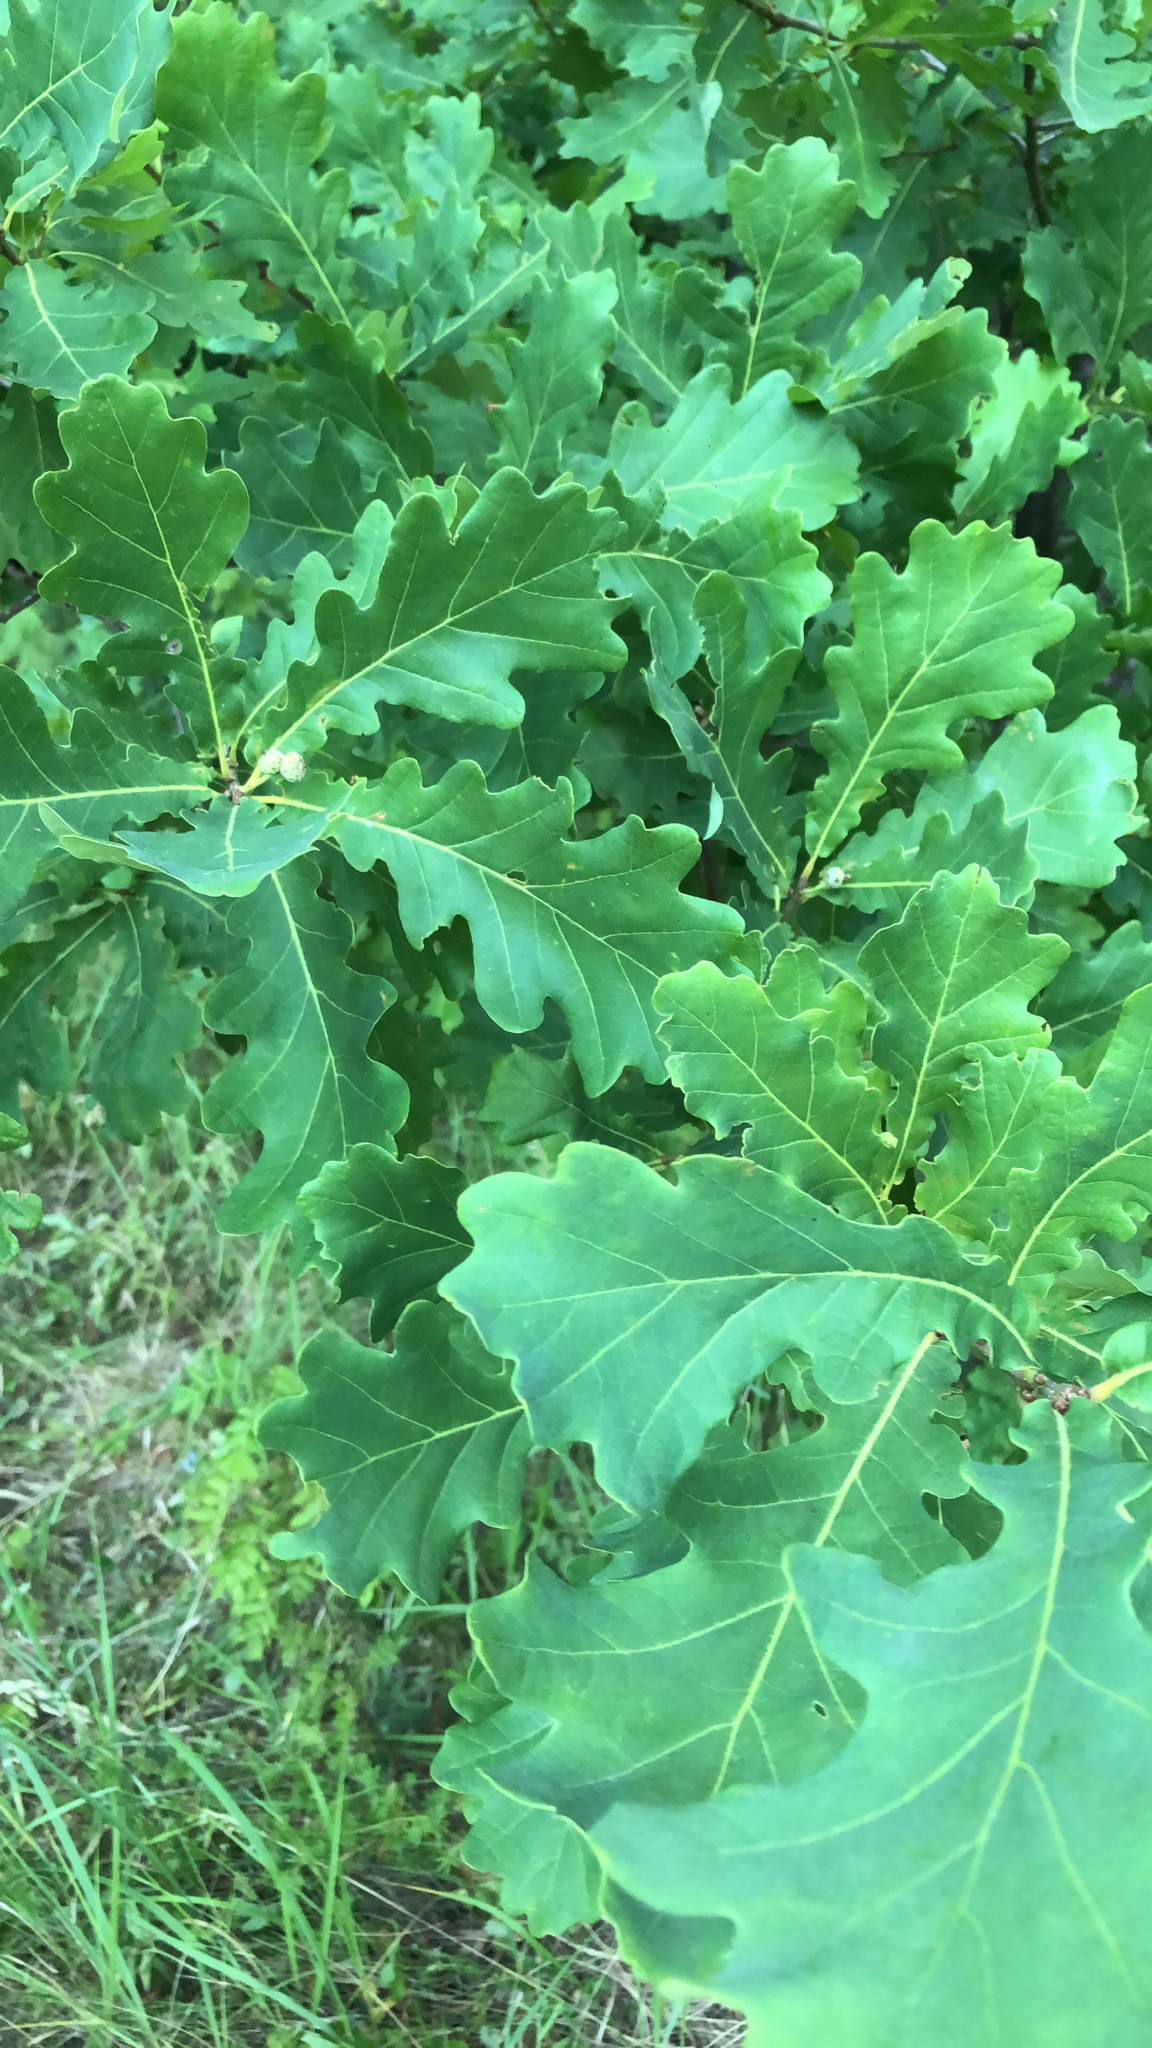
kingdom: Plantae
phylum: Tracheophyta
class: Magnoliopsida
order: Fagales
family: Fagaceae
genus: Quercus
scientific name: Quercus robur
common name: Pedunculate oak
